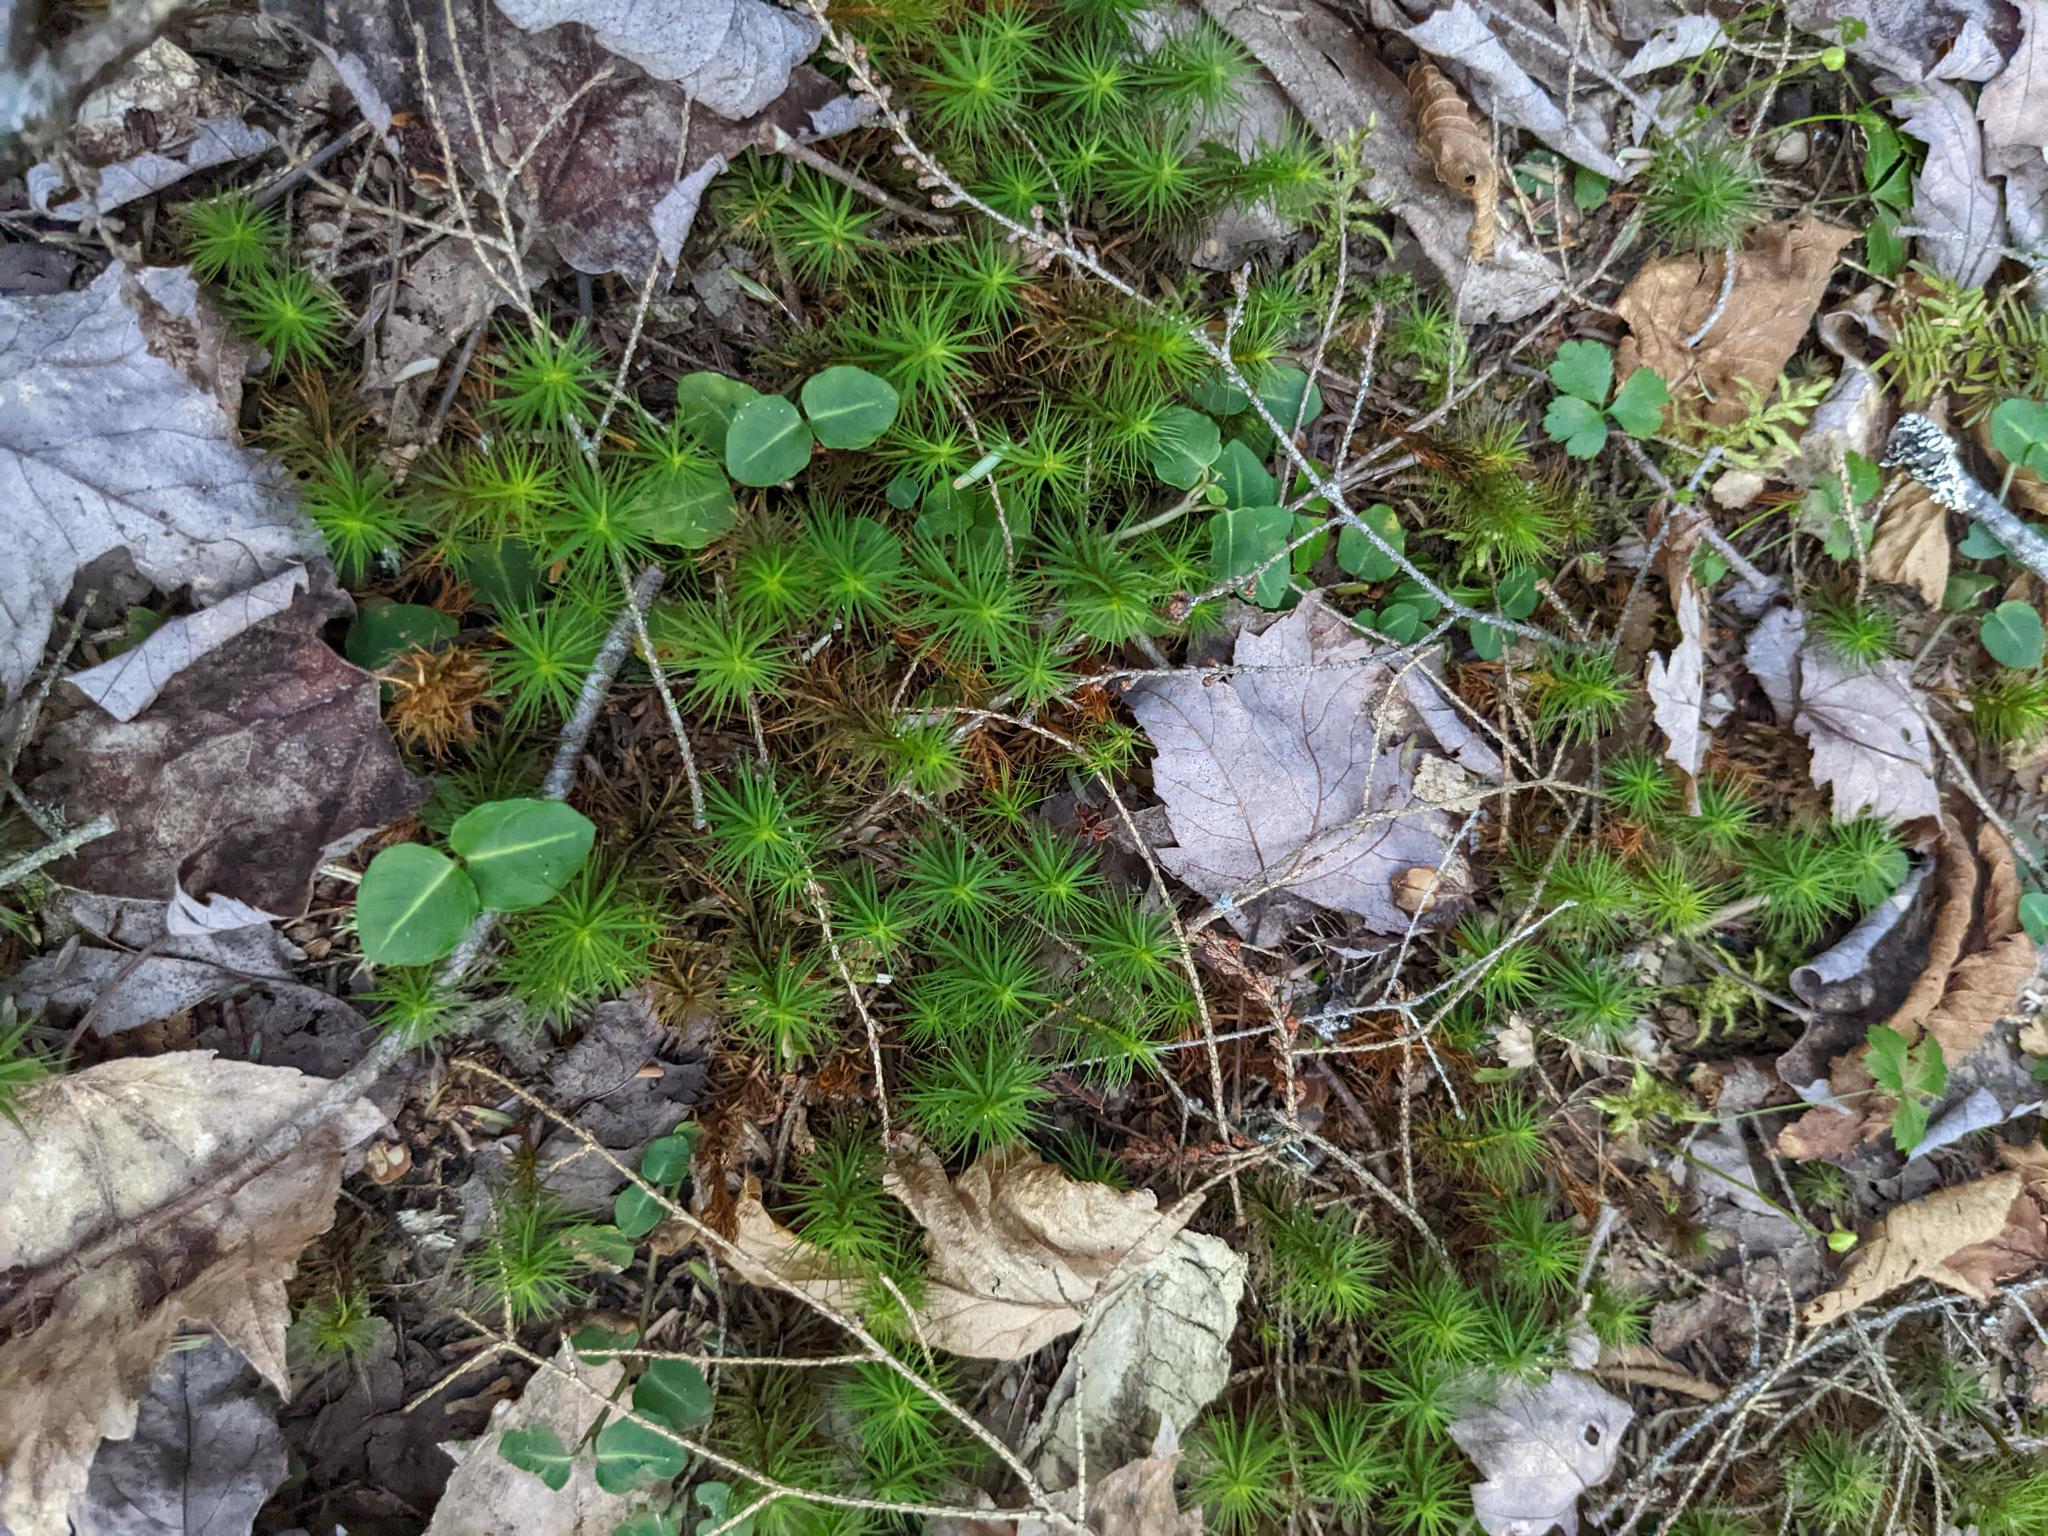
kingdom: Plantae
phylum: Tracheophyta
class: Magnoliopsida
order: Gentianales
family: Rubiaceae
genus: Mitchella
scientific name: Mitchella repens
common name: Partridge-berry
